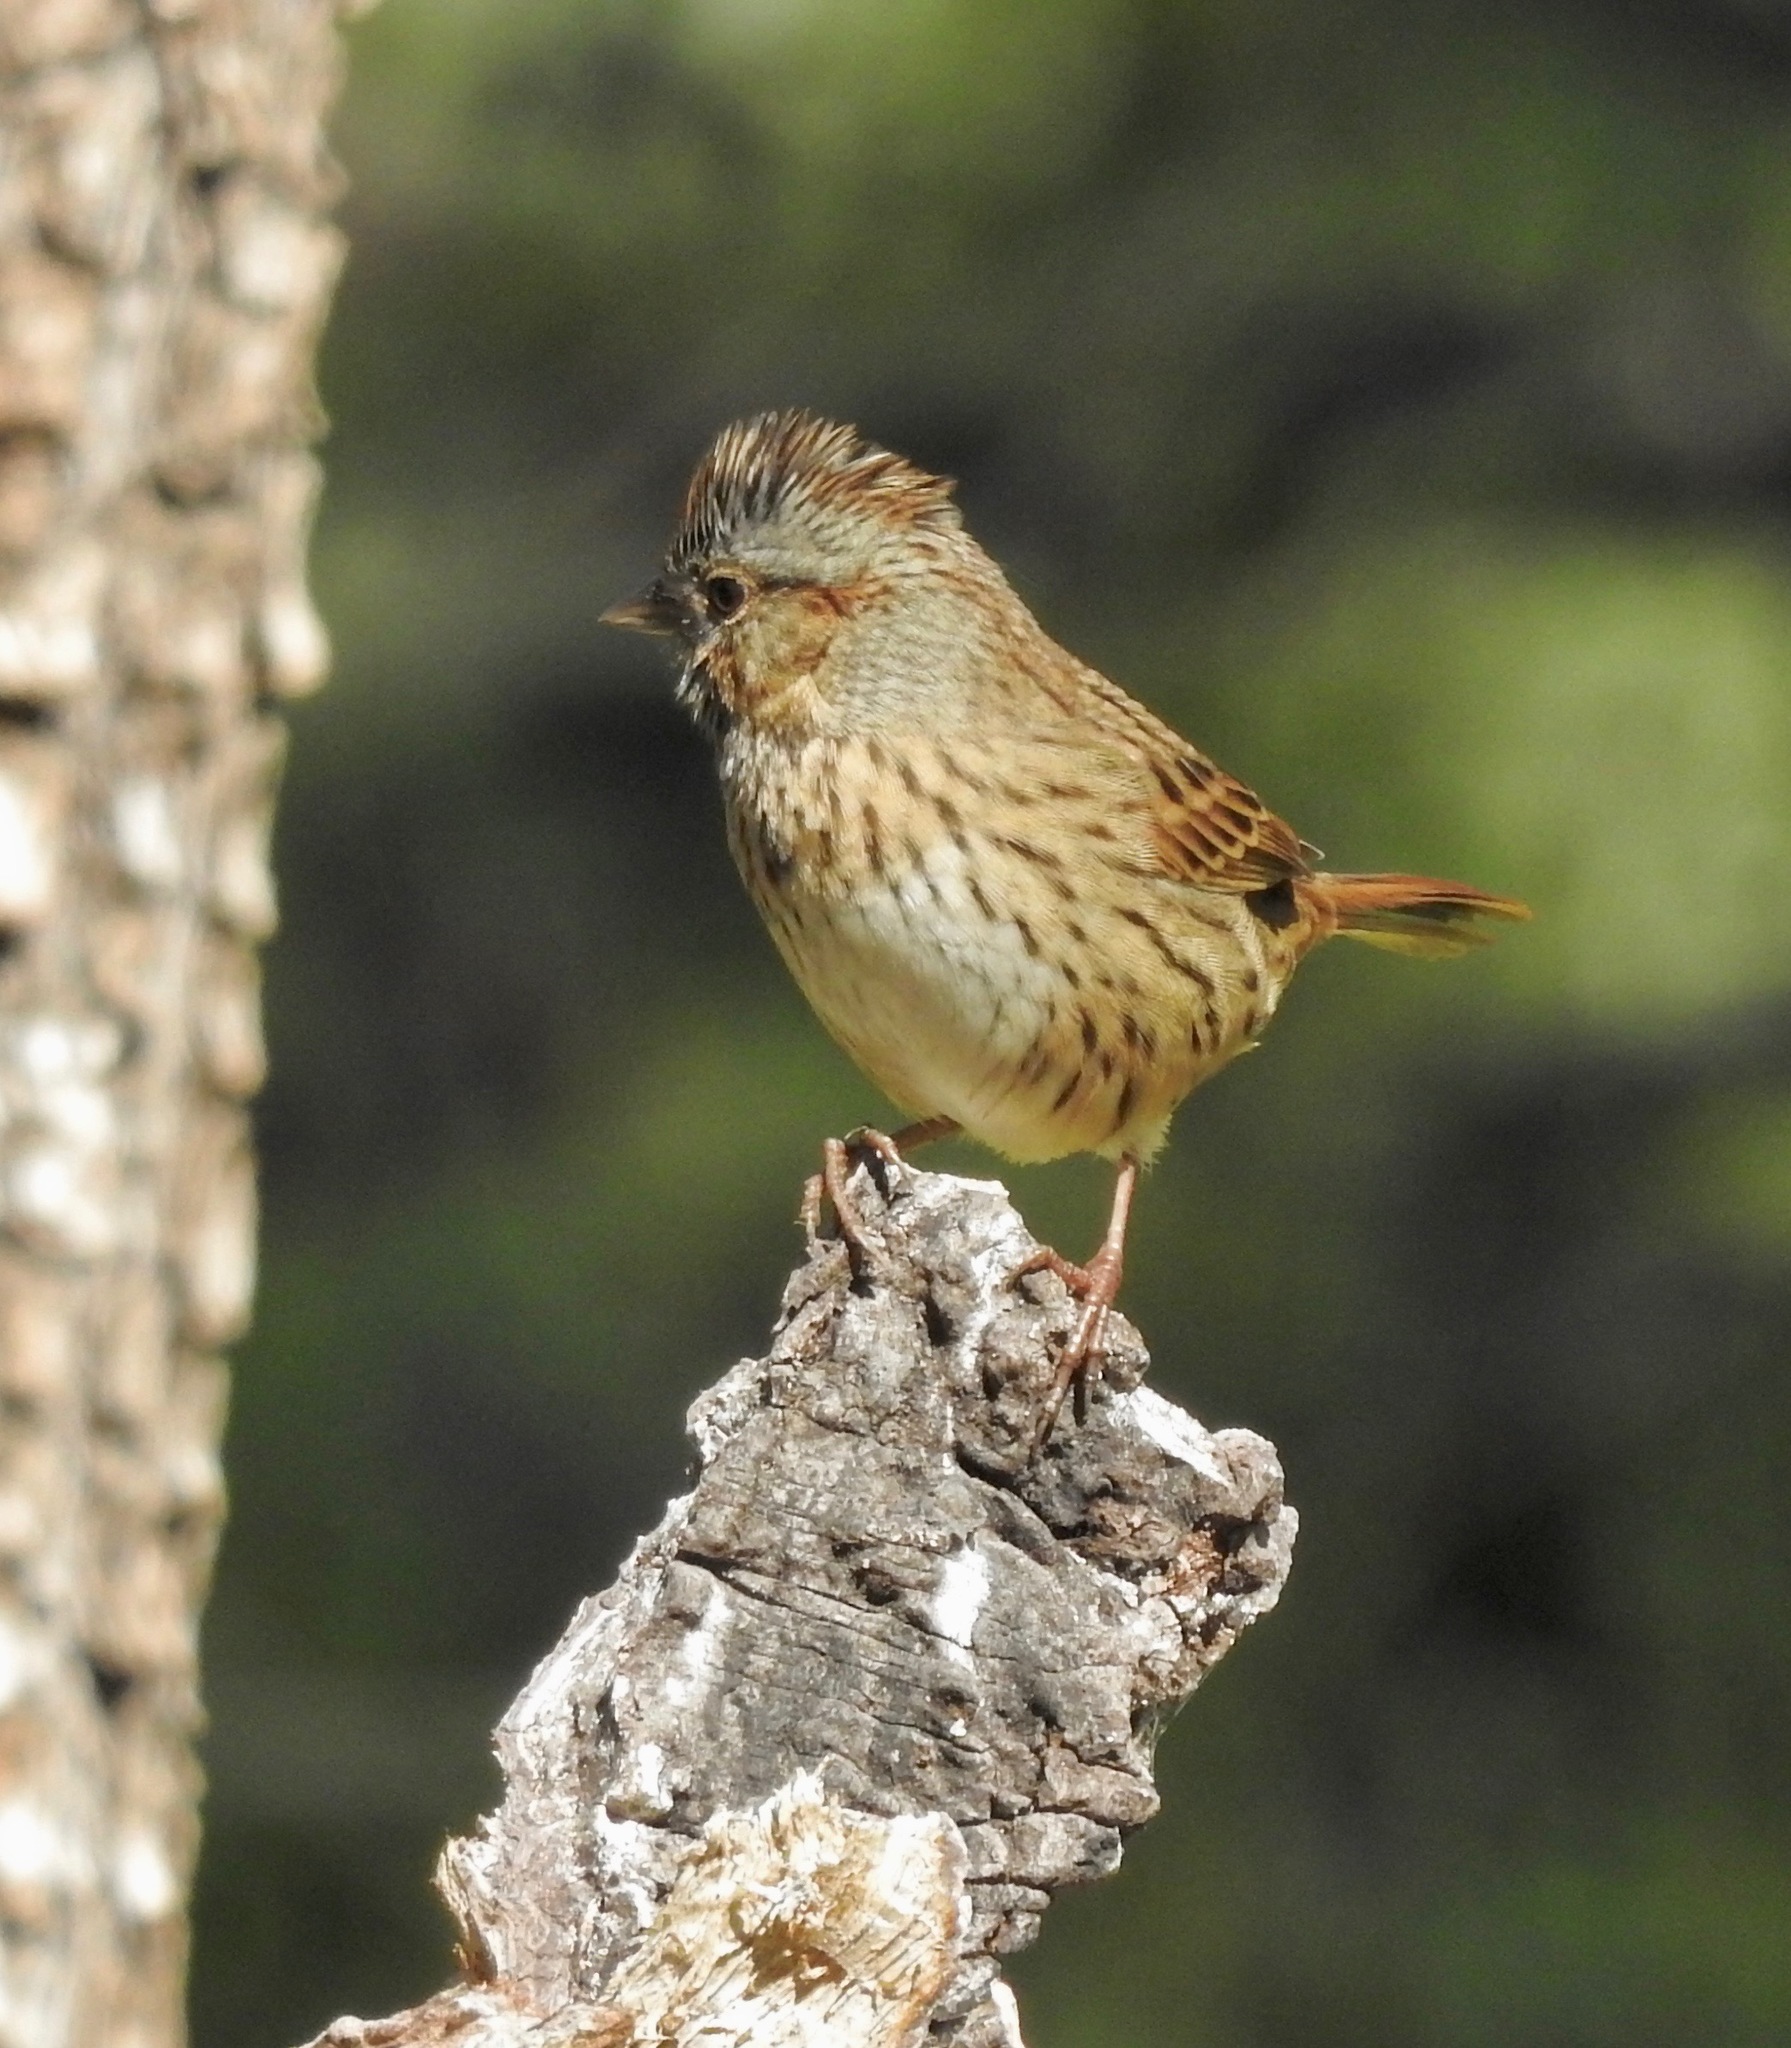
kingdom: Animalia
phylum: Chordata
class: Aves
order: Passeriformes
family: Passerellidae
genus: Melospiza
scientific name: Melospiza lincolnii
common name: Lincoln's sparrow
